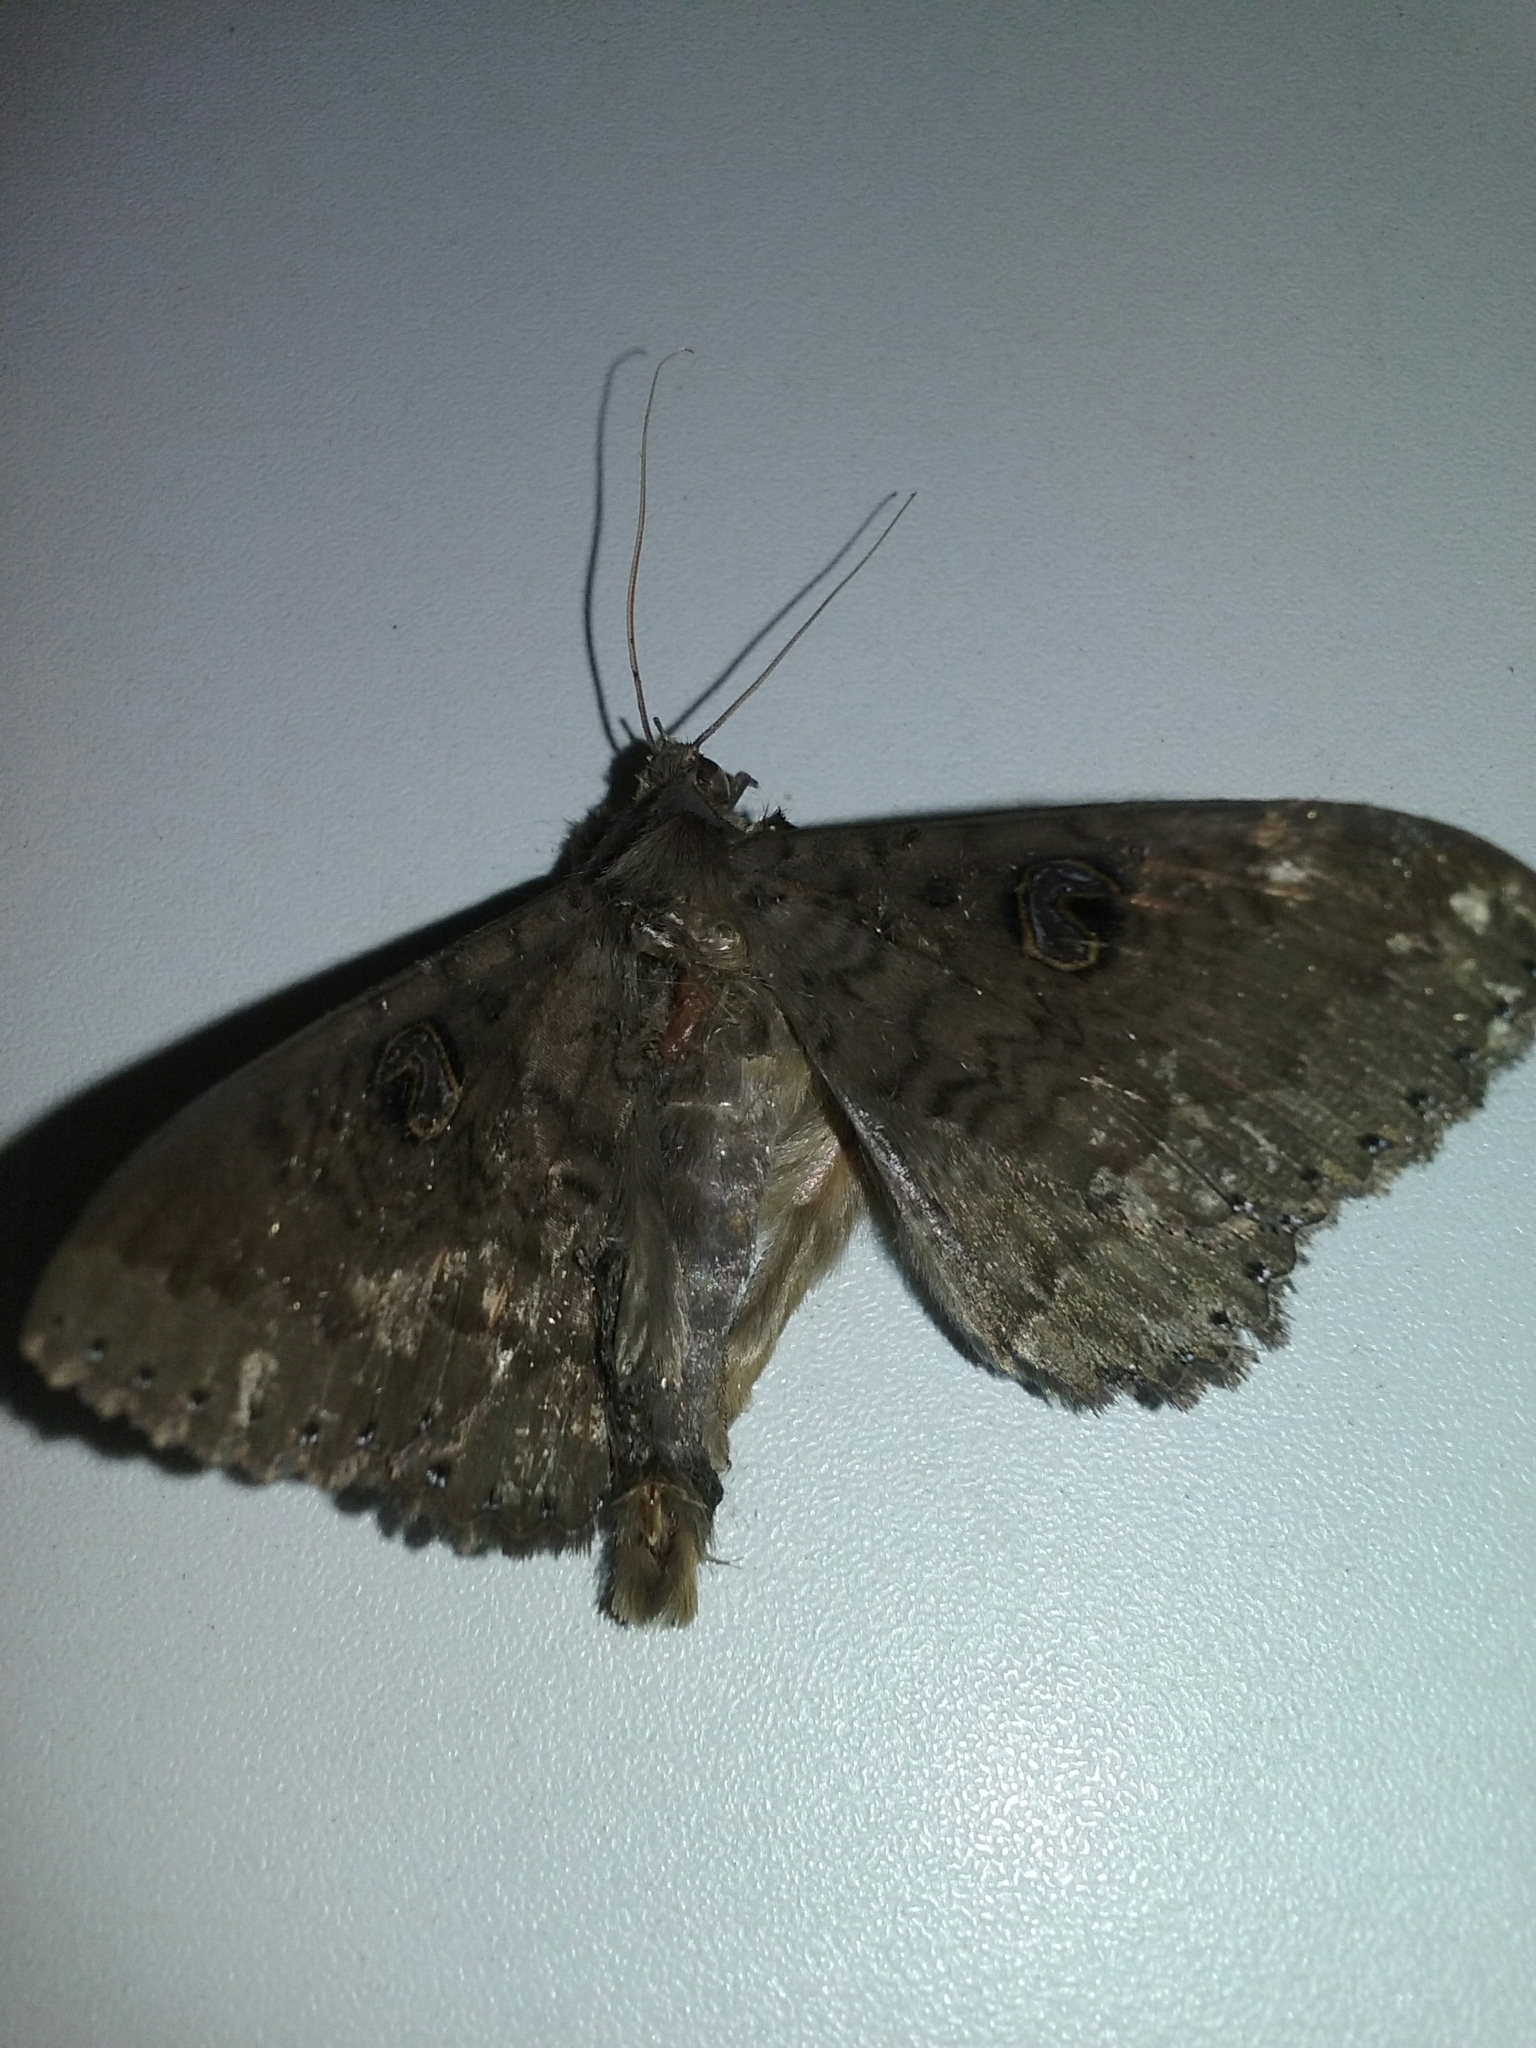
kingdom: Animalia
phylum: Arthropoda
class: Insecta
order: Lepidoptera
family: Erebidae
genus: Dasypodia
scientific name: Dasypodia cymatodes
